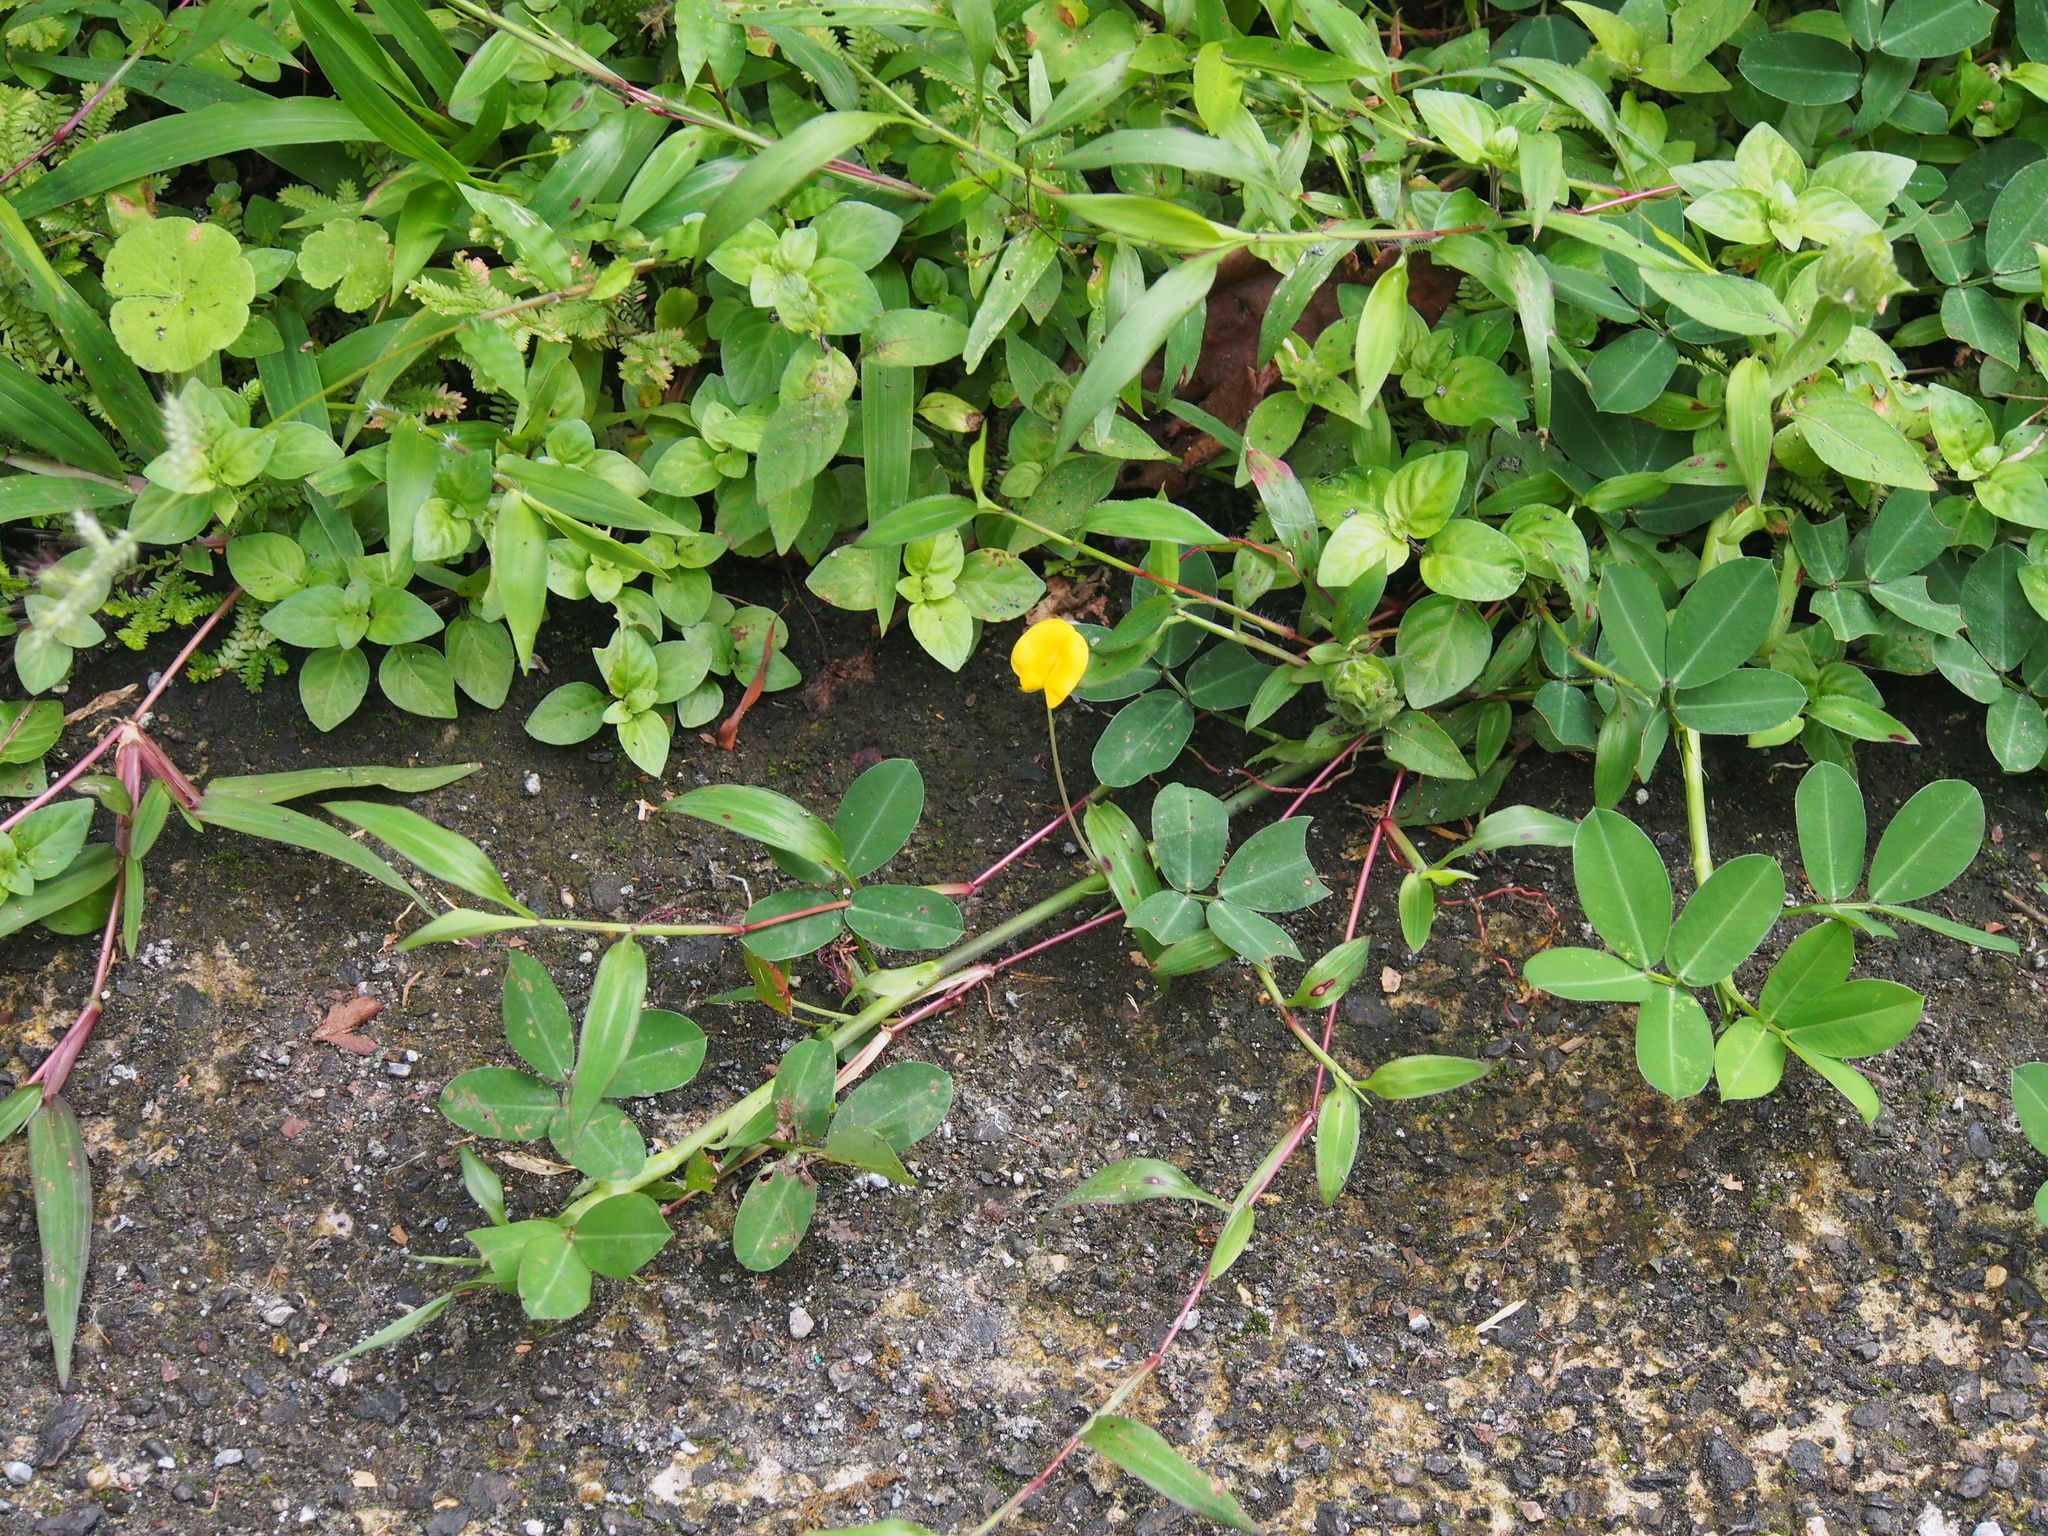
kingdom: Plantae
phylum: Tracheophyta
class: Magnoliopsida
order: Fabales
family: Fabaceae
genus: Arachis
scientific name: Arachis pintoi
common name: Pinto peanut
